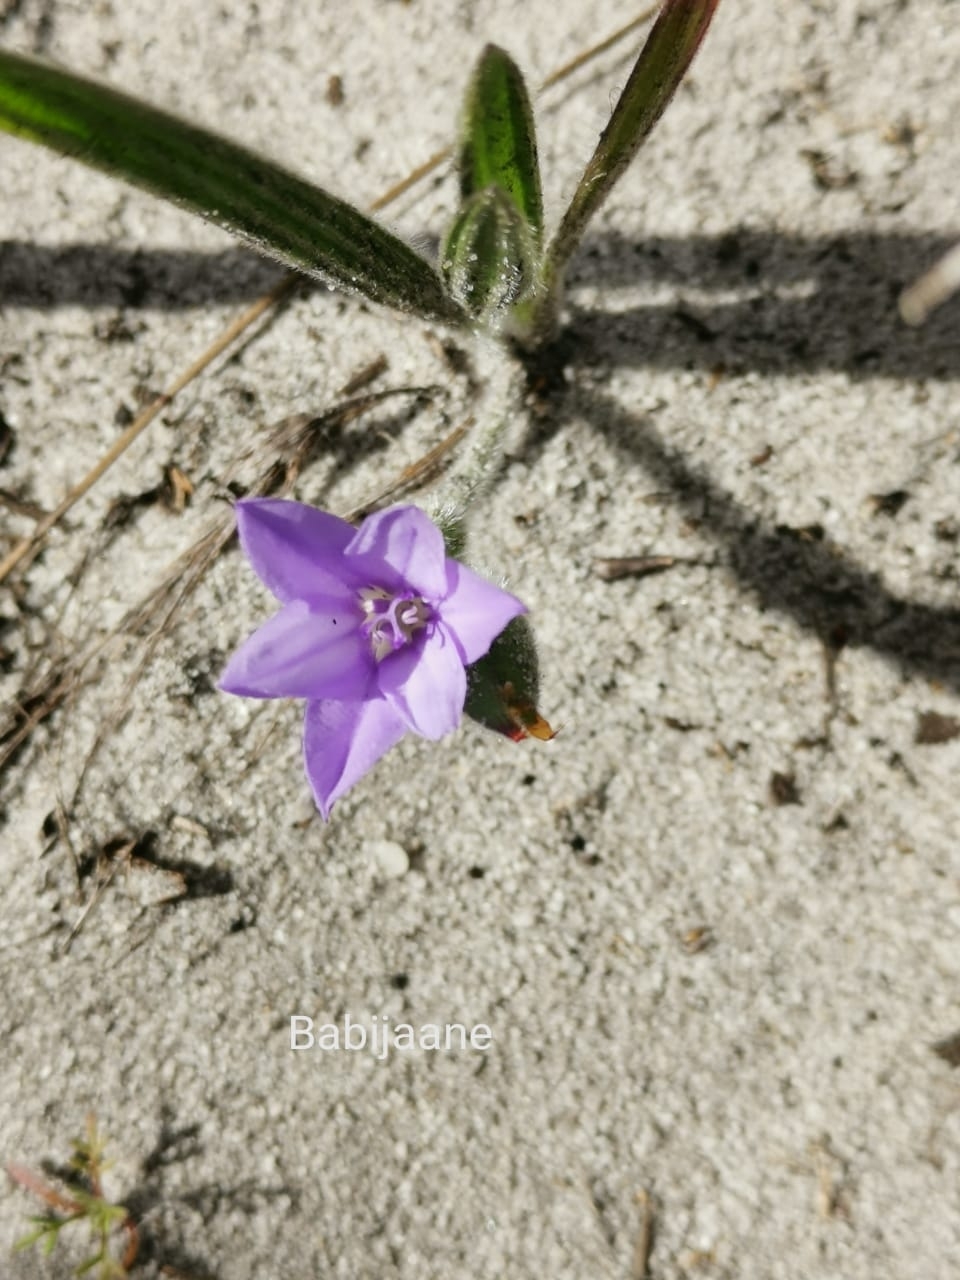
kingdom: Plantae
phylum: Tracheophyta
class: Liliopsida
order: Asparagales
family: Iridaceae
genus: Babiana
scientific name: Babiana villosula
